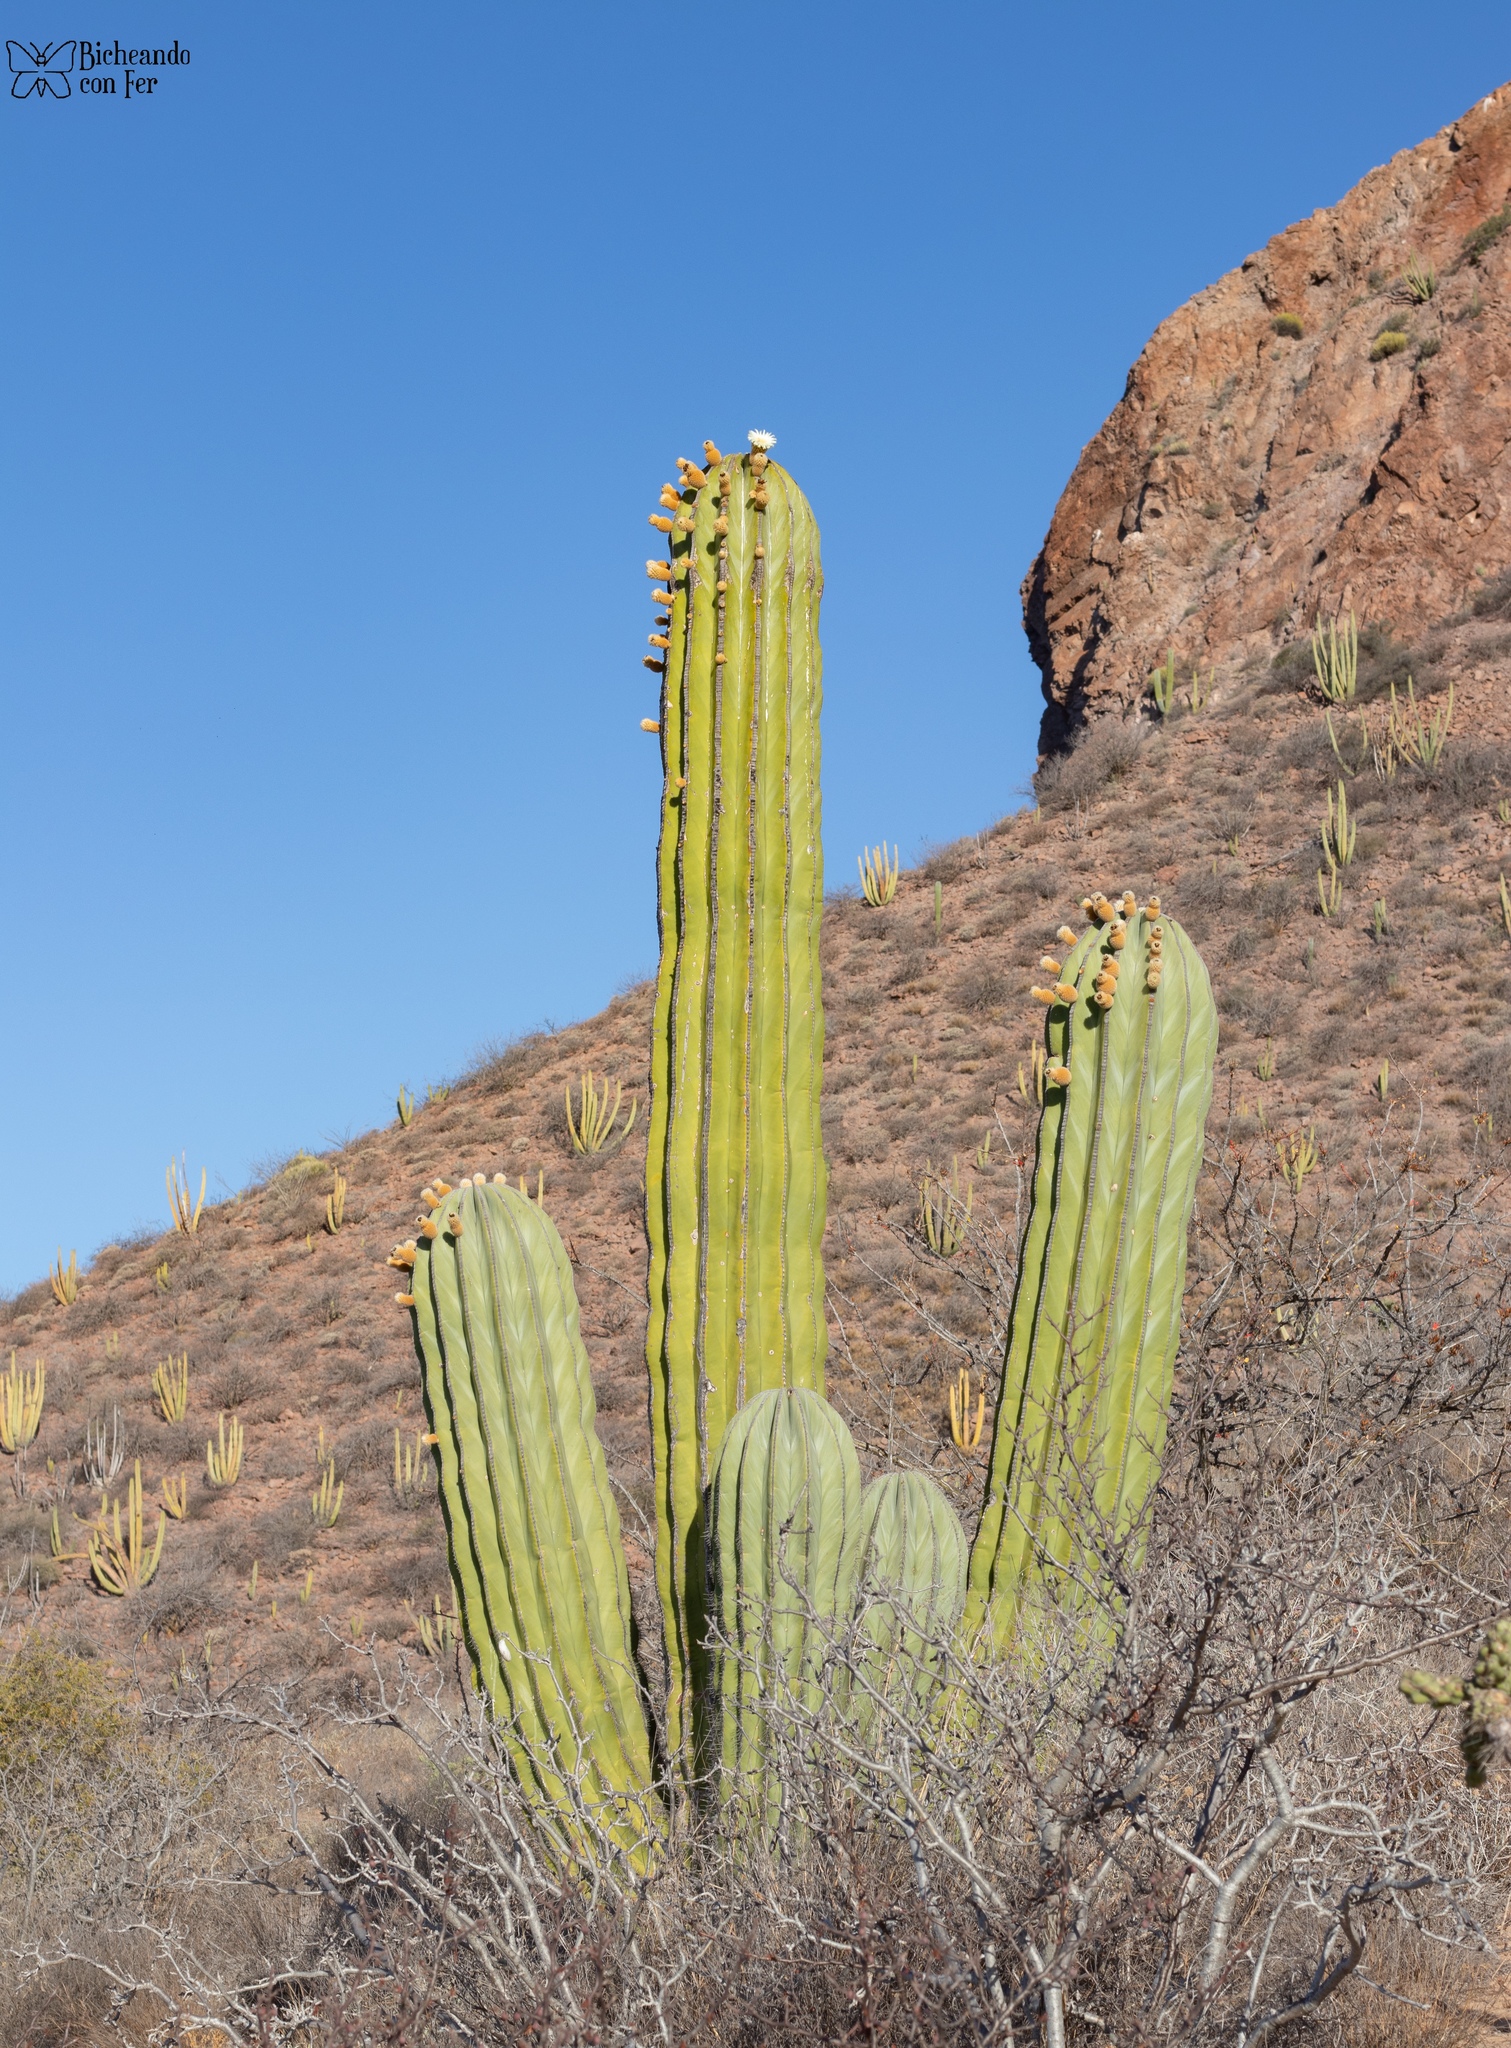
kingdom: Plantae
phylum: Tracheophyta
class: Magnoliopsida
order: Caryophyllales
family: Cactaceae
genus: Pachycereus
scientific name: Pachycereus pringlei
